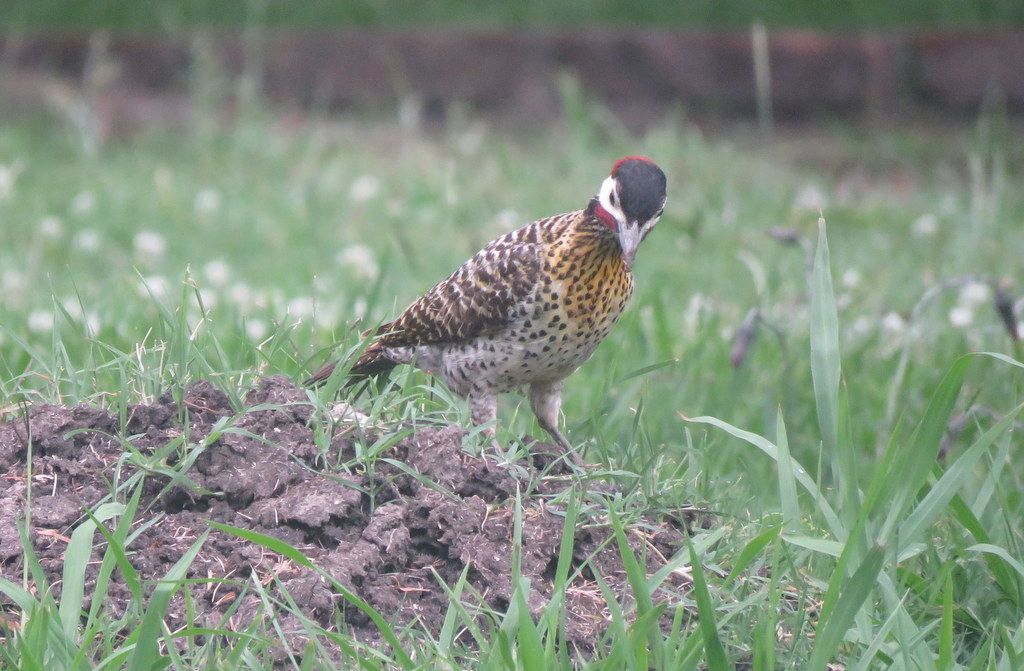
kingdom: Animalia
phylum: Chordata
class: Aves
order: Piciformes
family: Picidae
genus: Colaptes
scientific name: Colaptes melanochloros
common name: Green-barred woodpecker
